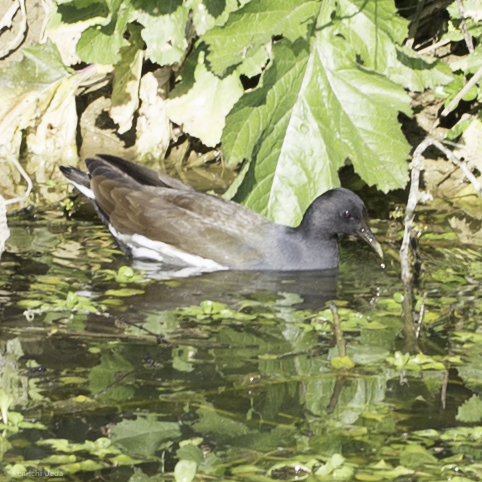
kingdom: Animalia
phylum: Chordata
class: Aves
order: Gruiformes
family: Rallidae
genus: Gallinula
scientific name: Gallinula chloropus
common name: Common moorhen
